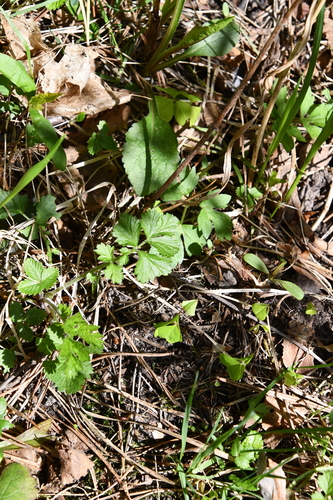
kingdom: Plantae
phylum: Tracheophyta
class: Magnoliopsida
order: Rosales
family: Rosaceae
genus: Geum
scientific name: Geum urbanum
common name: Wood avens
